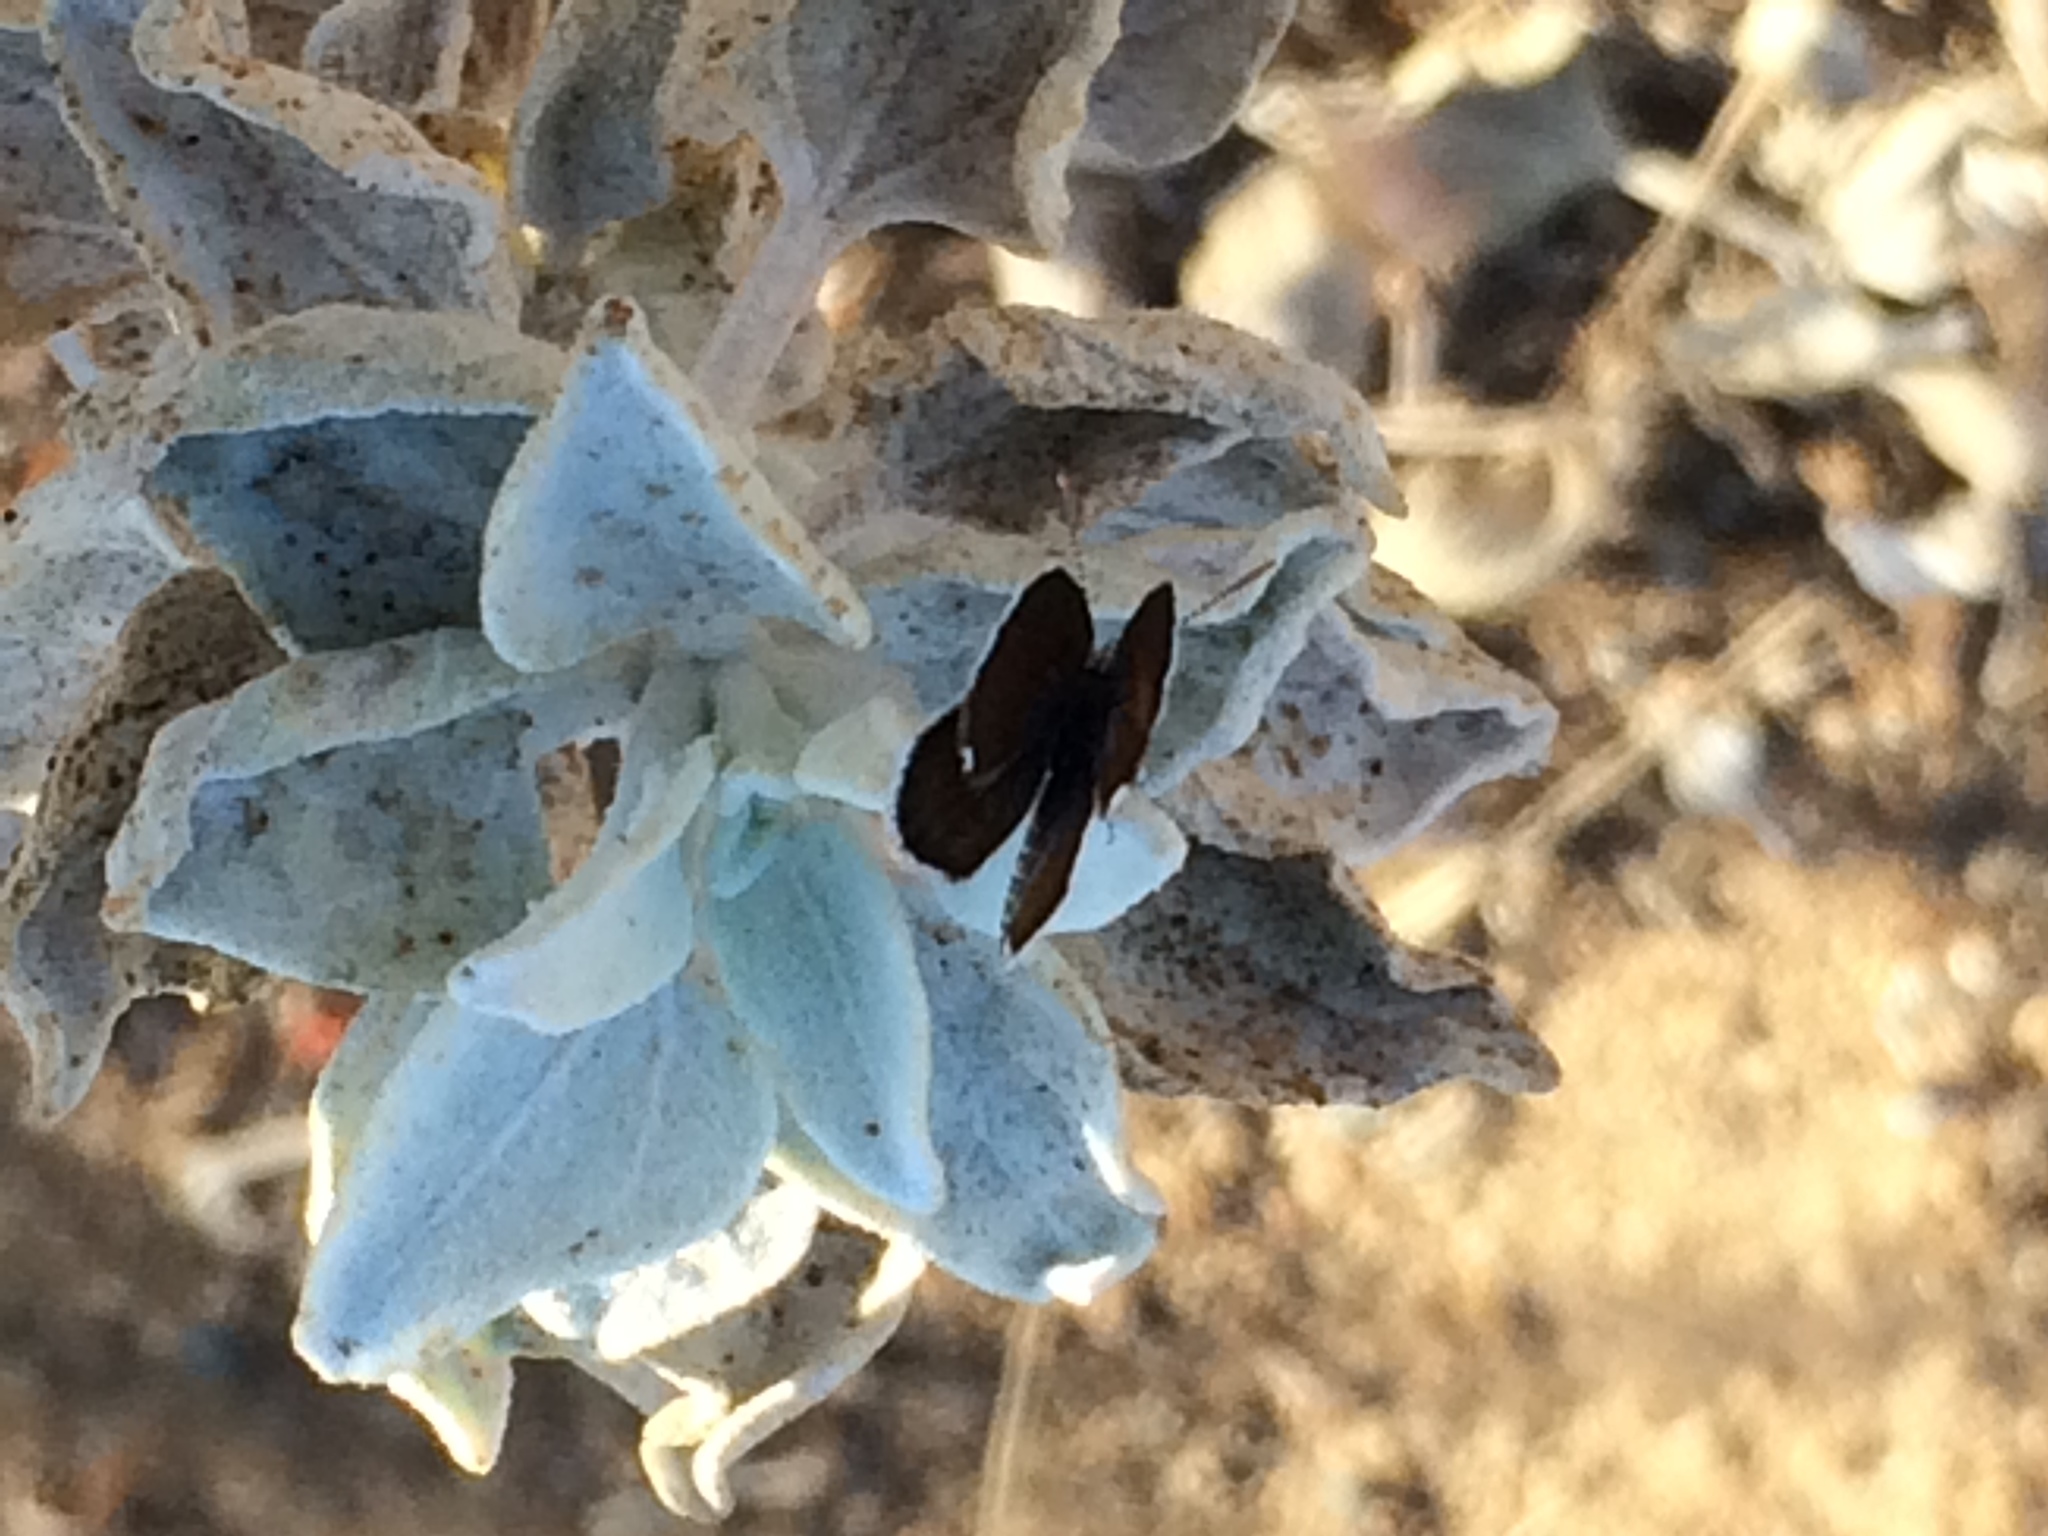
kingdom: Animalia
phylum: Arthropoda
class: Insecta
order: Lepidoptera
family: Lycaenidae
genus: Brephidium
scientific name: Brephidium exilis
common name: Pygmy blue
